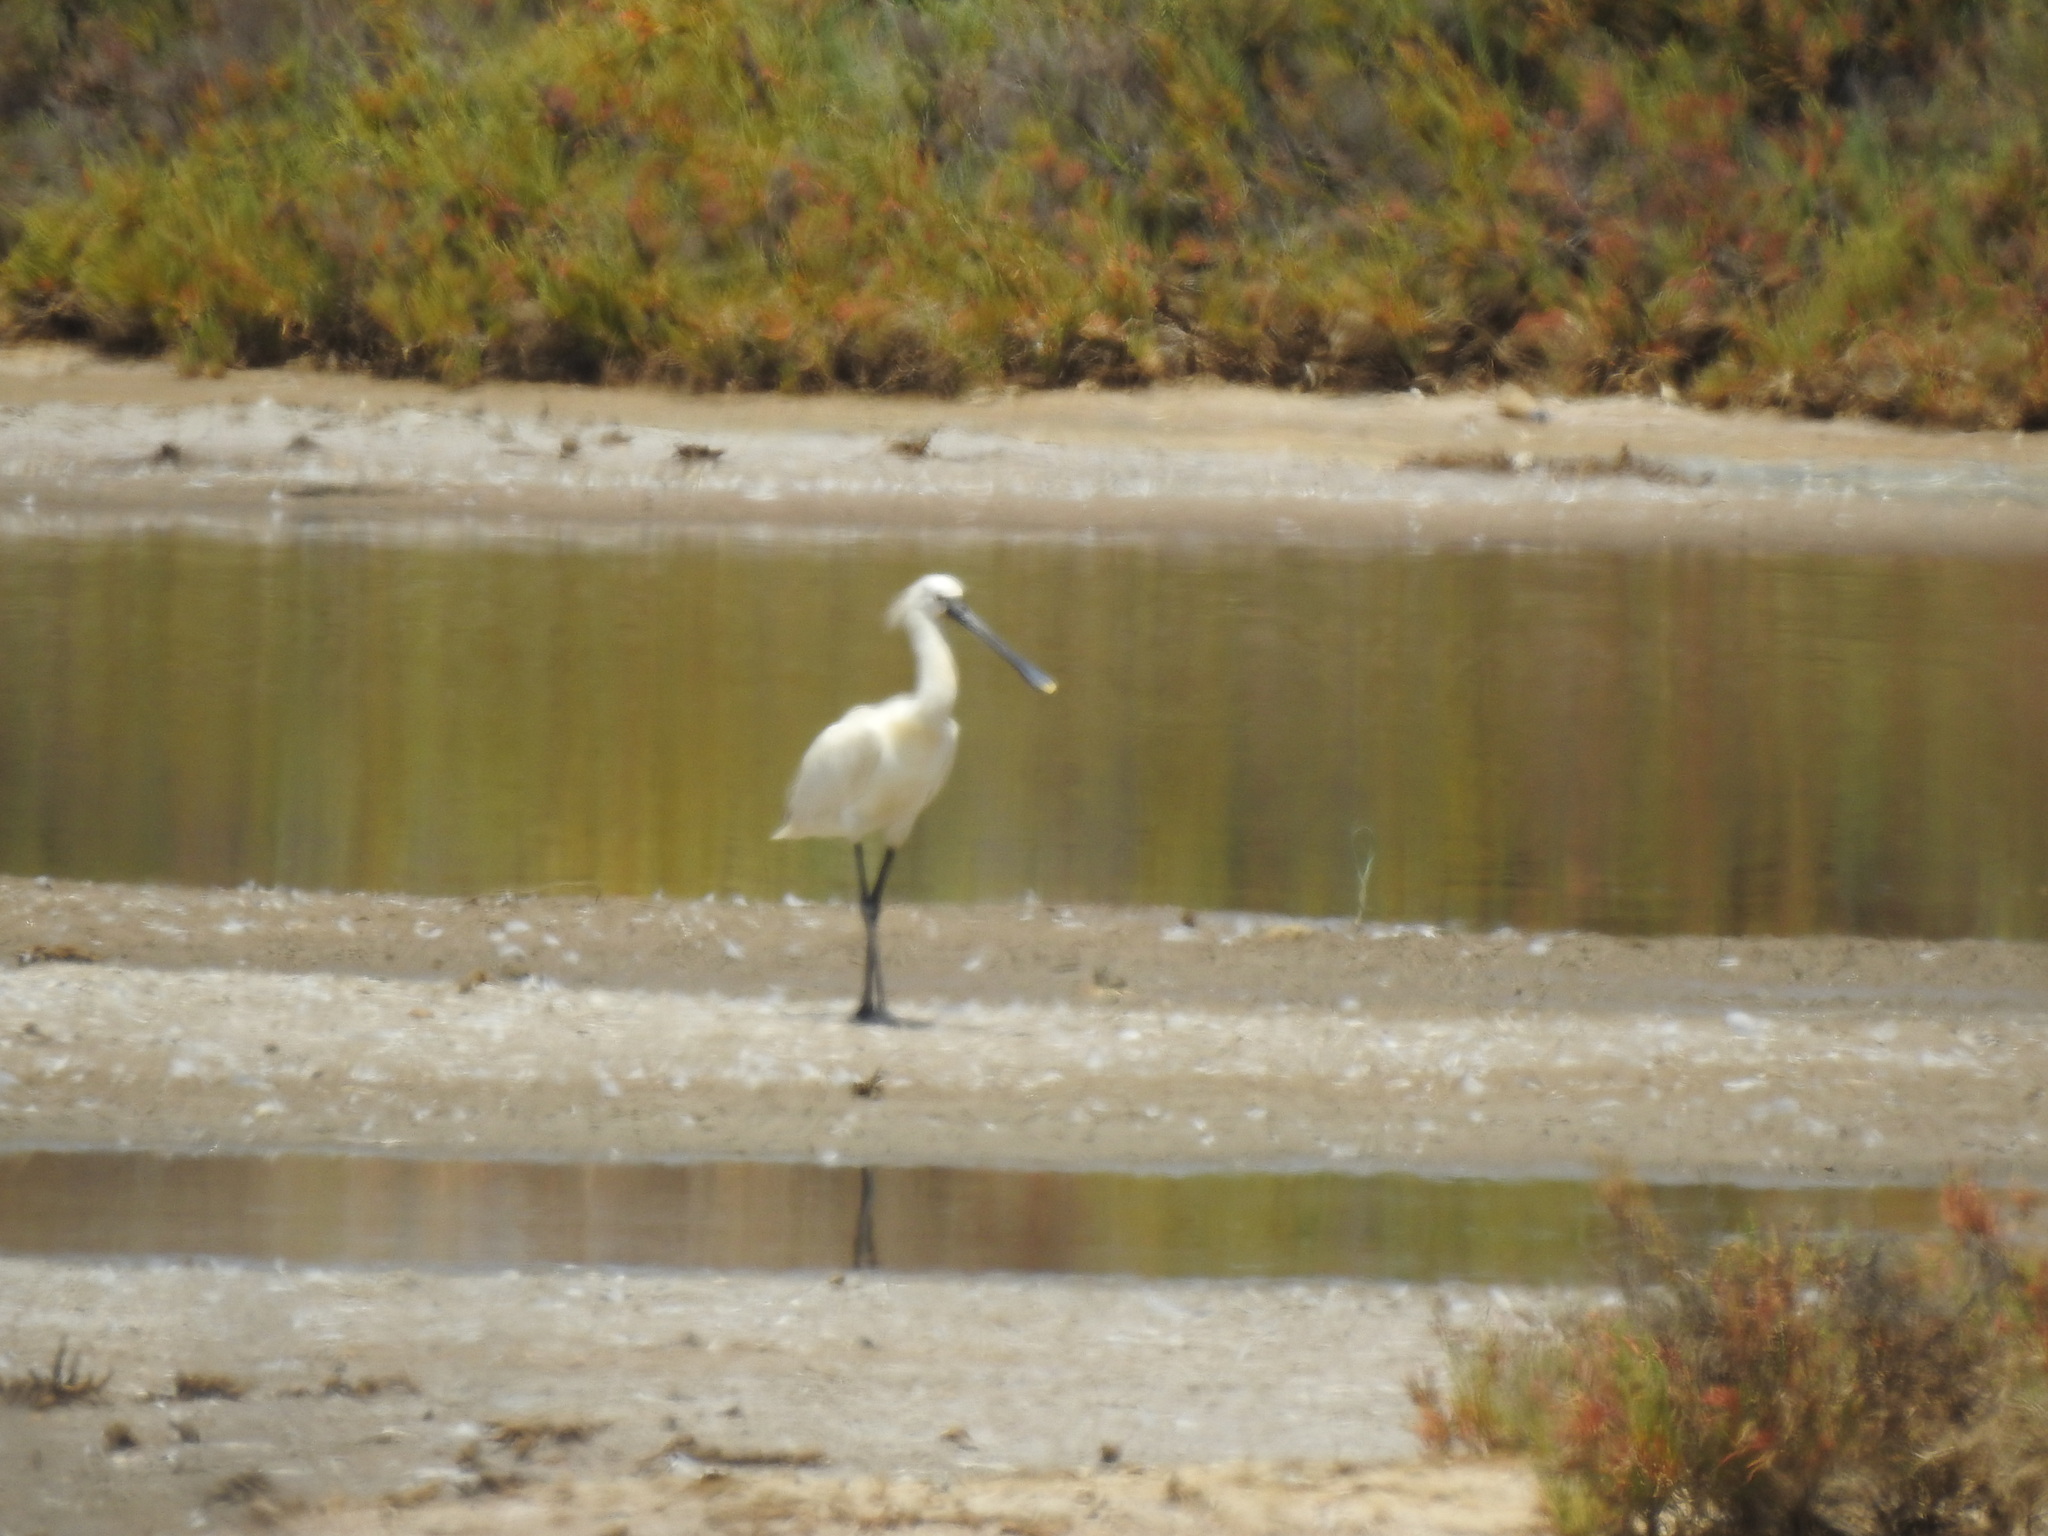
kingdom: Animalia
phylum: Chordata
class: Aves
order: Pelecaniformes
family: Threskiornithidae
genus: Platalea
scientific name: Platalea leucorodia
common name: Eurasian spoonbill
